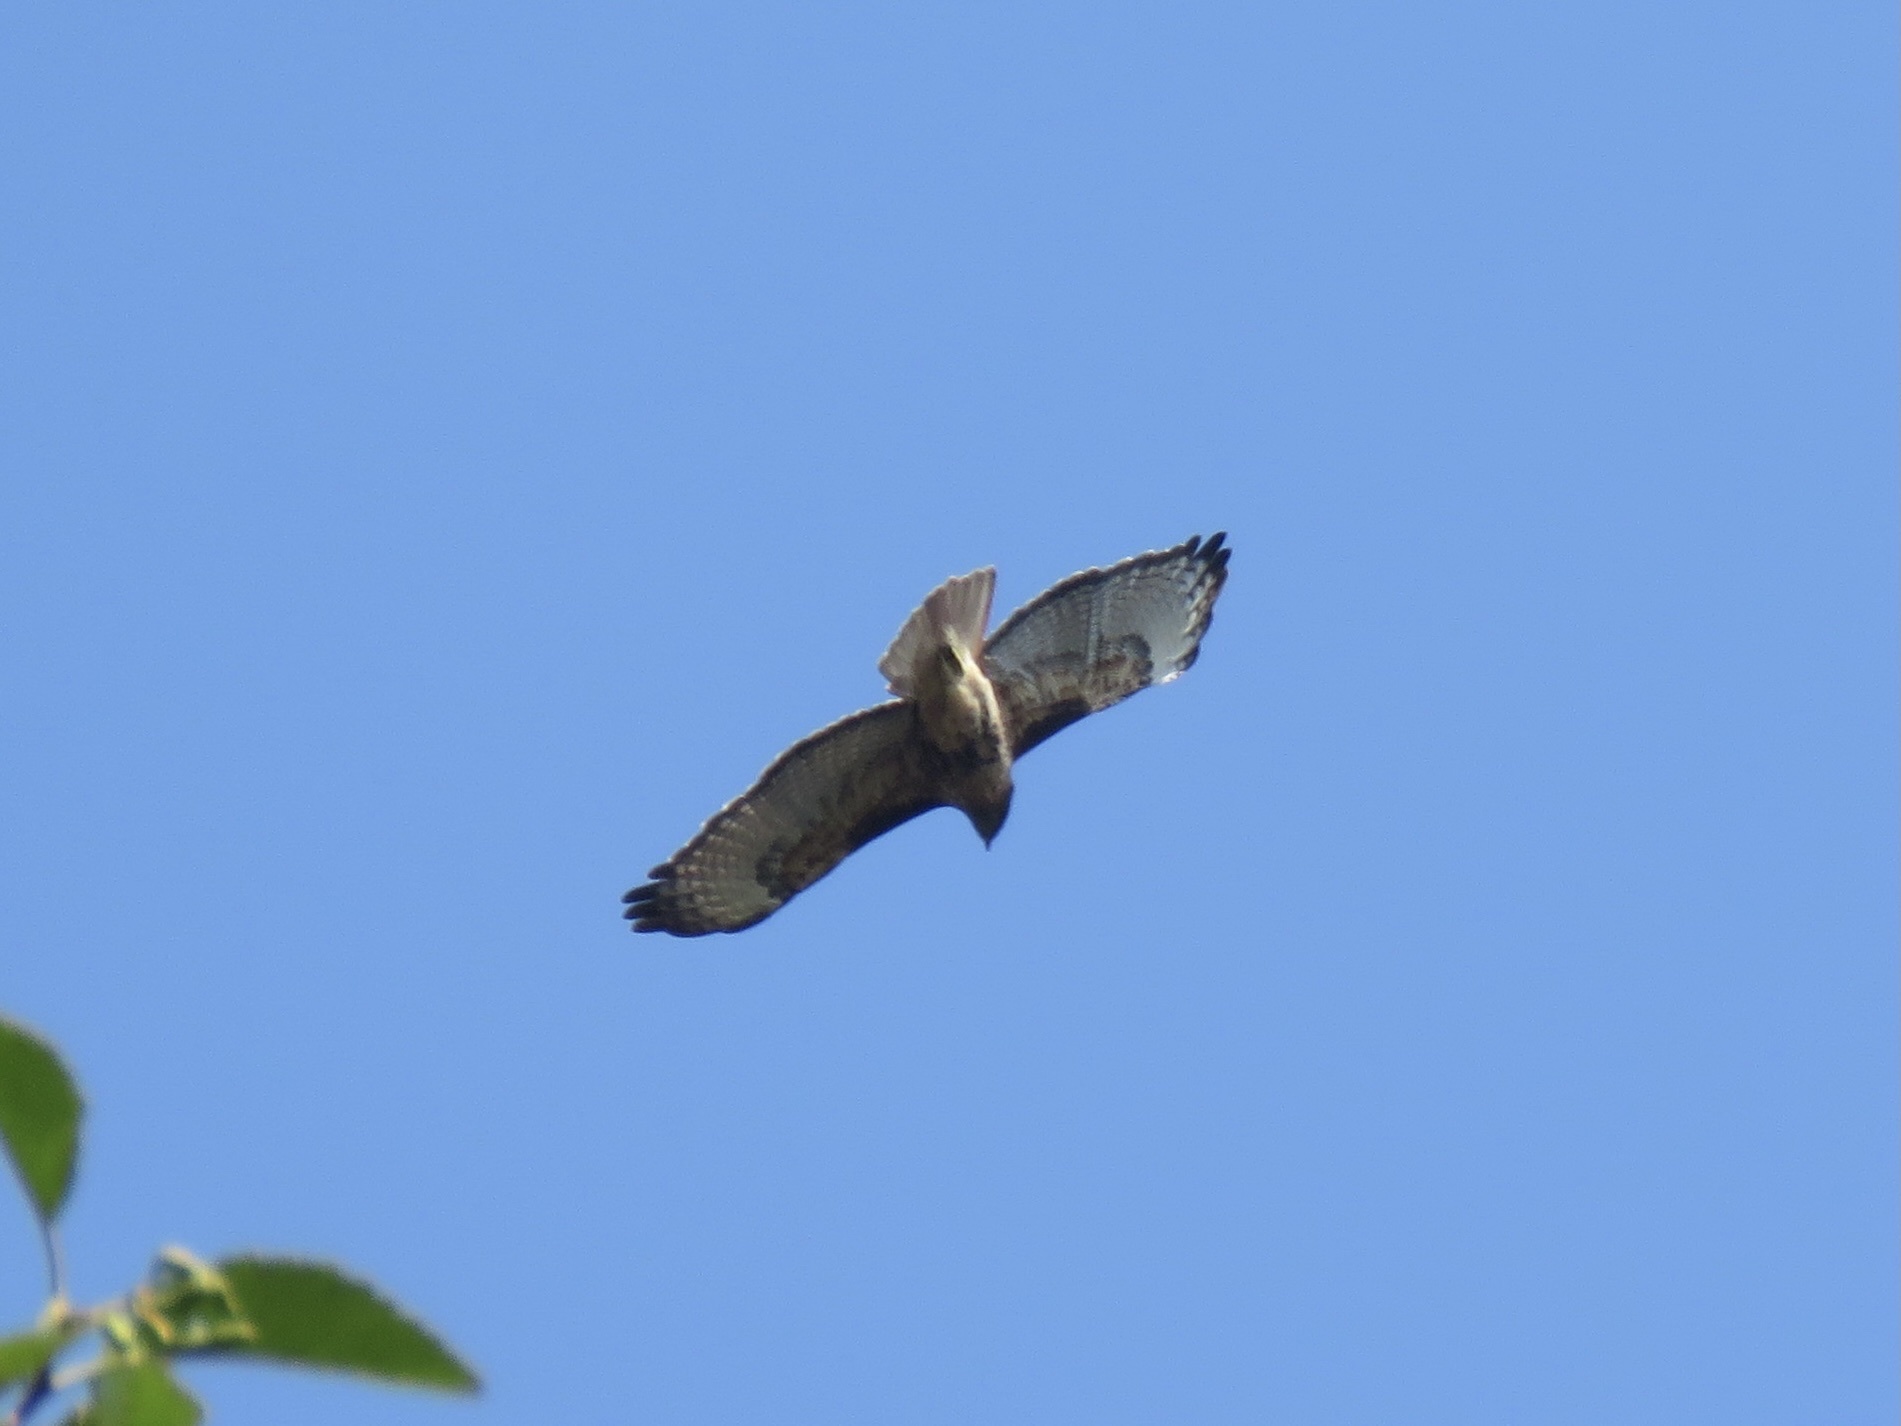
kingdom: Animalia
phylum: Chordata
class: Aves
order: Accipitriformes
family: Accipitridae
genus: Buteo
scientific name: Buteo jamaicensis
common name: Red-tailed hawk
